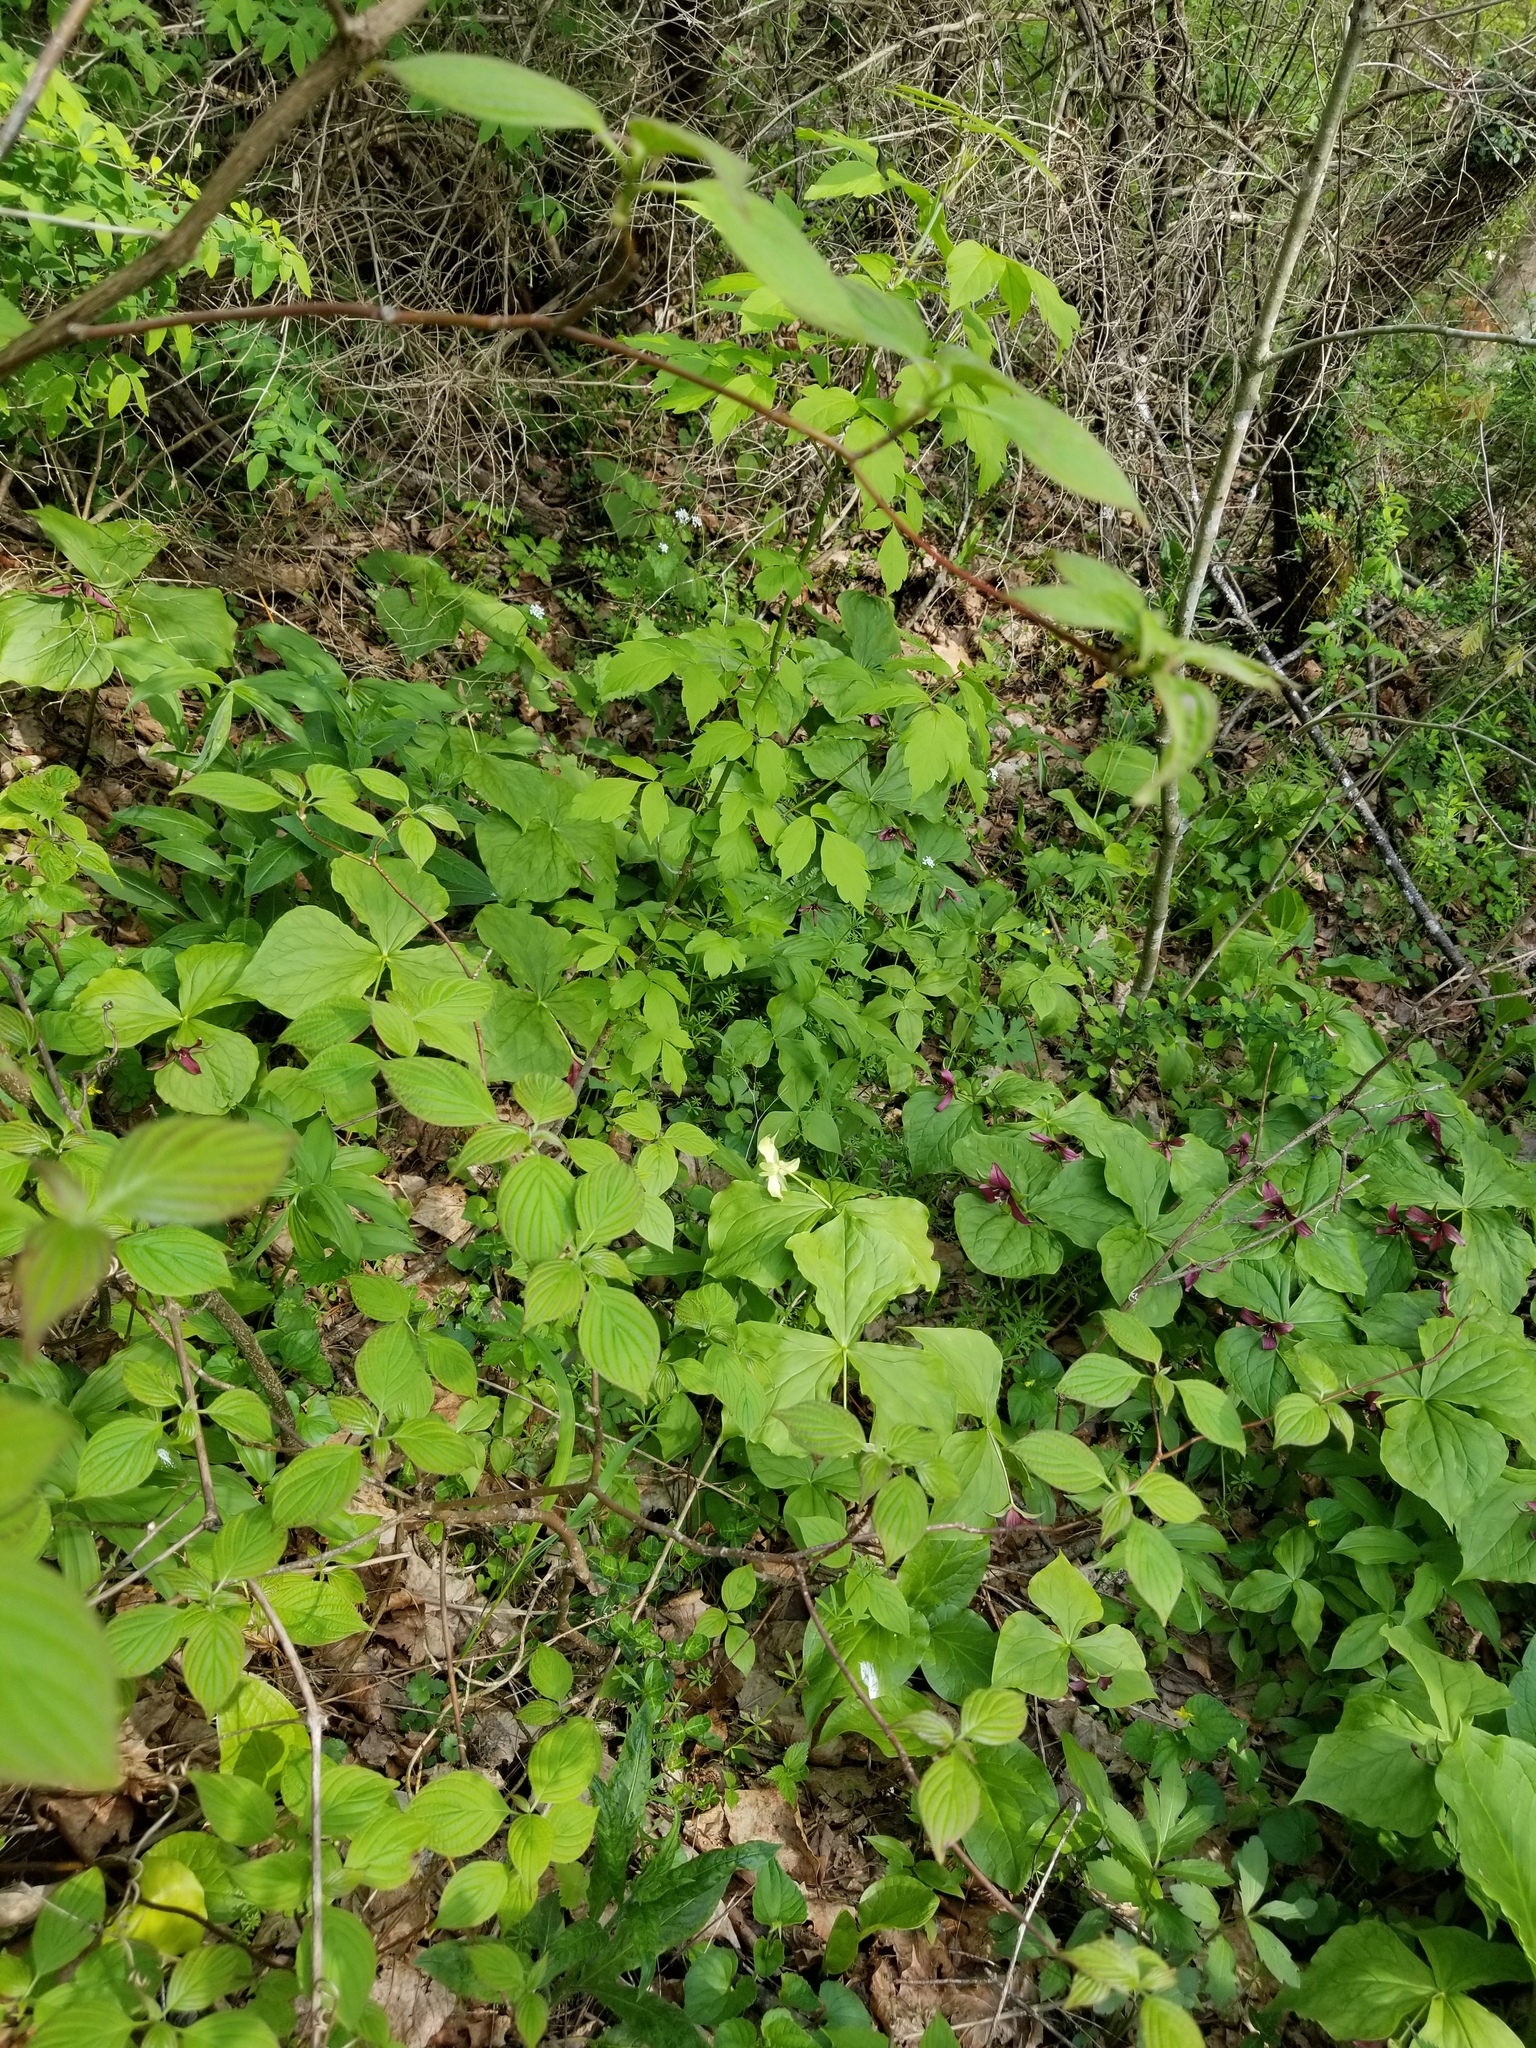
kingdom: Plantae
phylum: Tracheophyta
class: Liliopsida
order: Liliales
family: Melanthiaceae
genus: Trillium
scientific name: Trillium erectum
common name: Purple trillium
